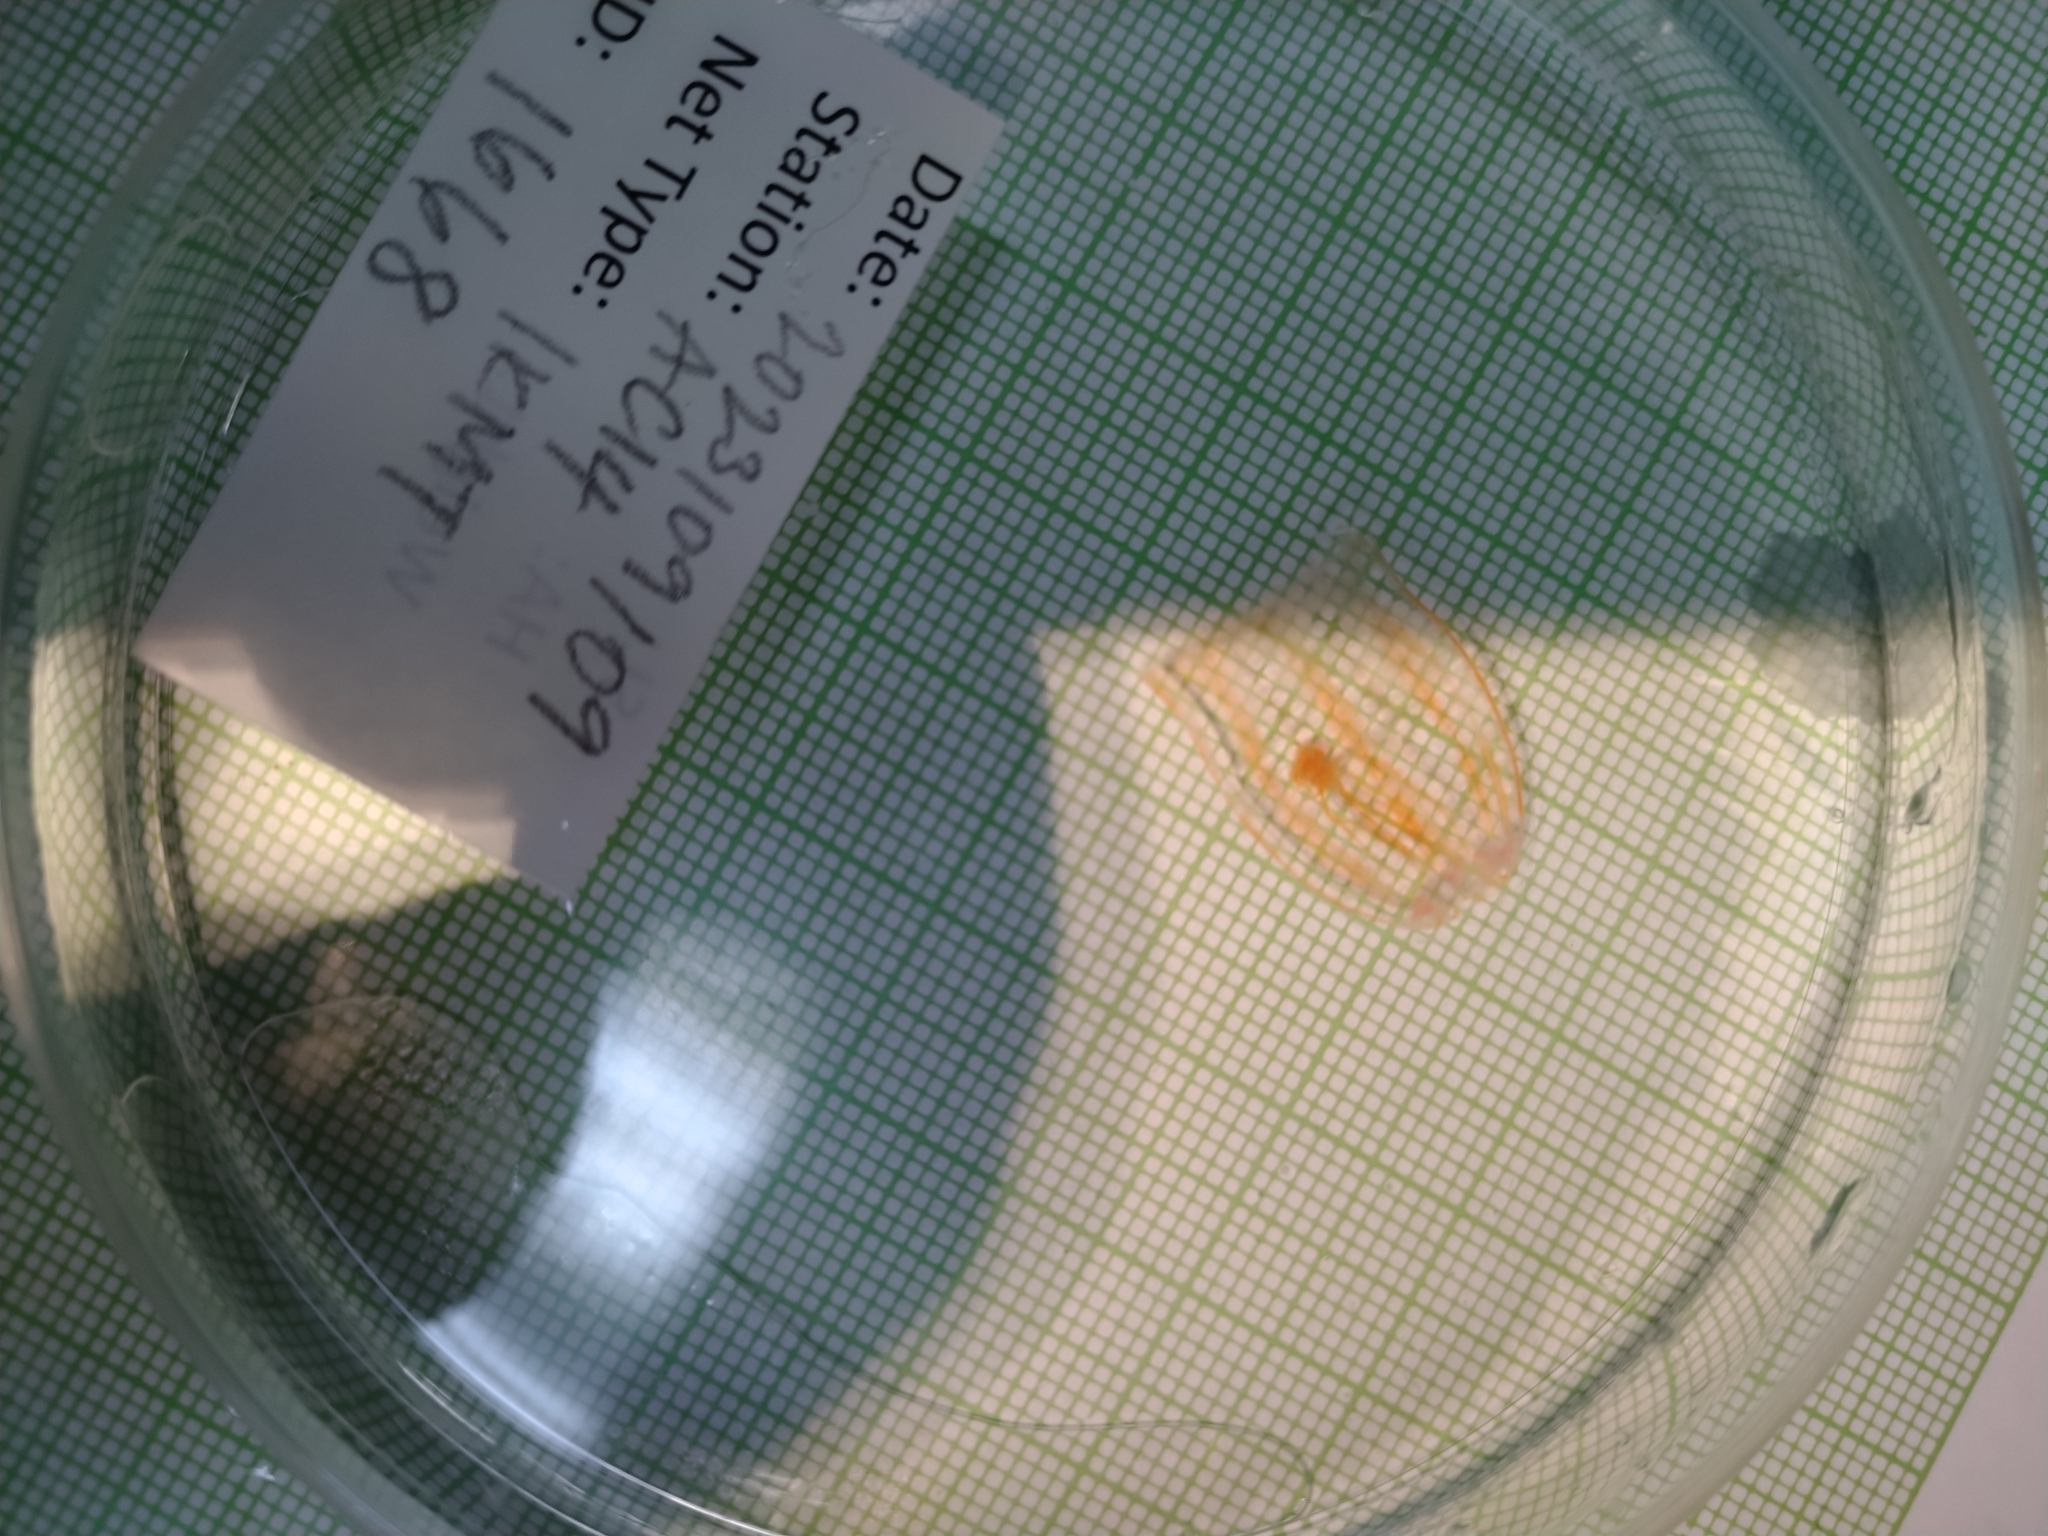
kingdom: Animalia
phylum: Cnidaria
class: Hydrozoa
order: Trachymedusae
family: Rhopalonematidae
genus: Aglantha
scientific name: Aglantha digitale
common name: Pink helmet
